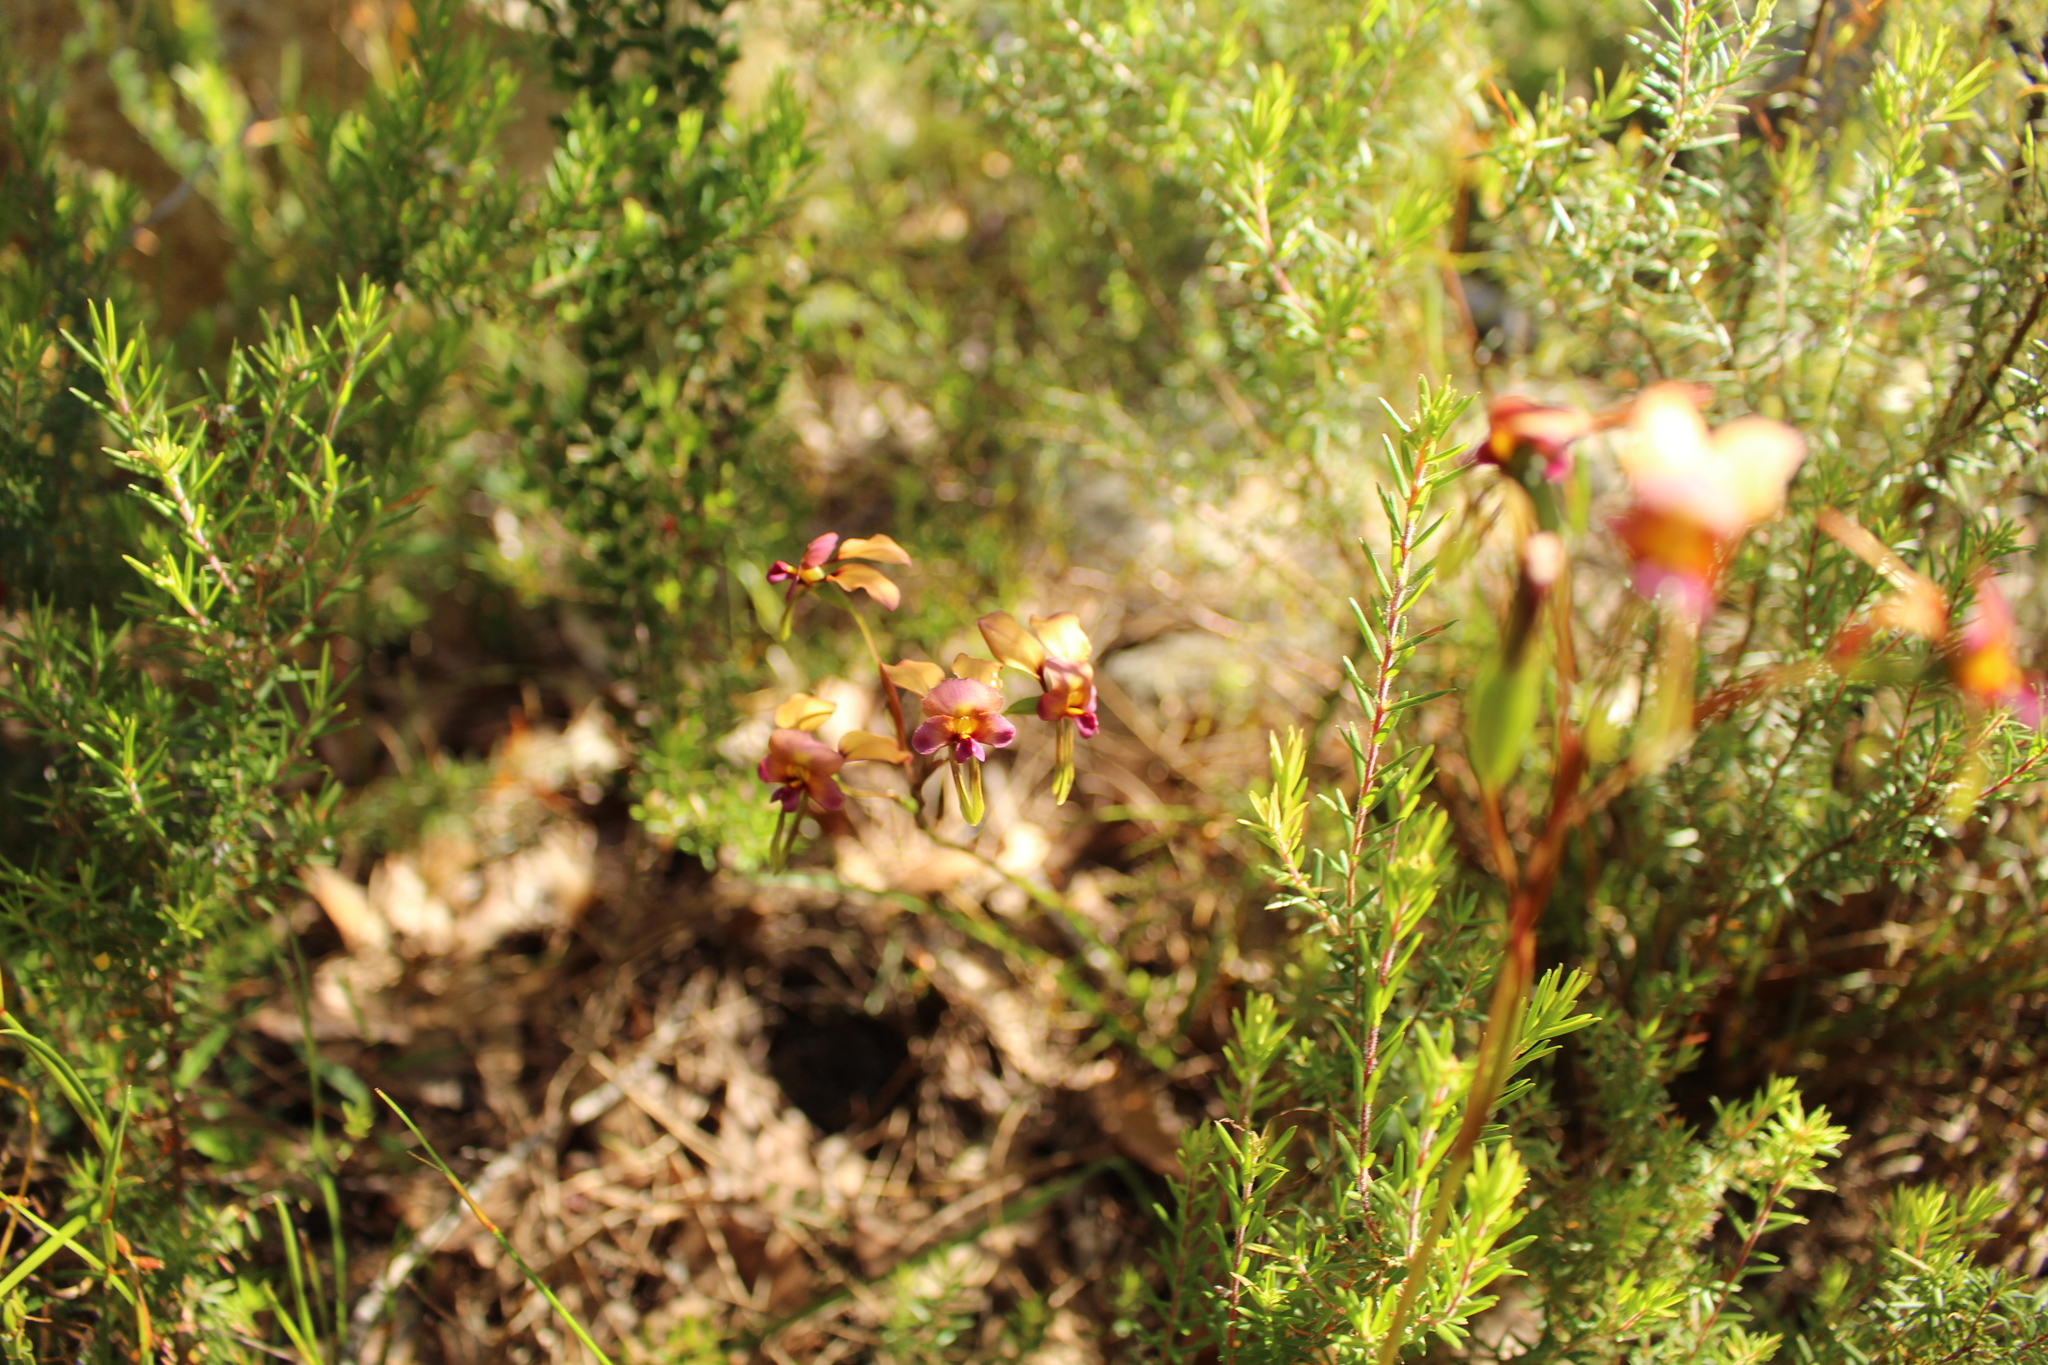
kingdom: Plantae
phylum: Tracheophyta
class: Liliopsida
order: Asparagales
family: Orchidaceae
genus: Diuris
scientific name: Diuris longifolia
